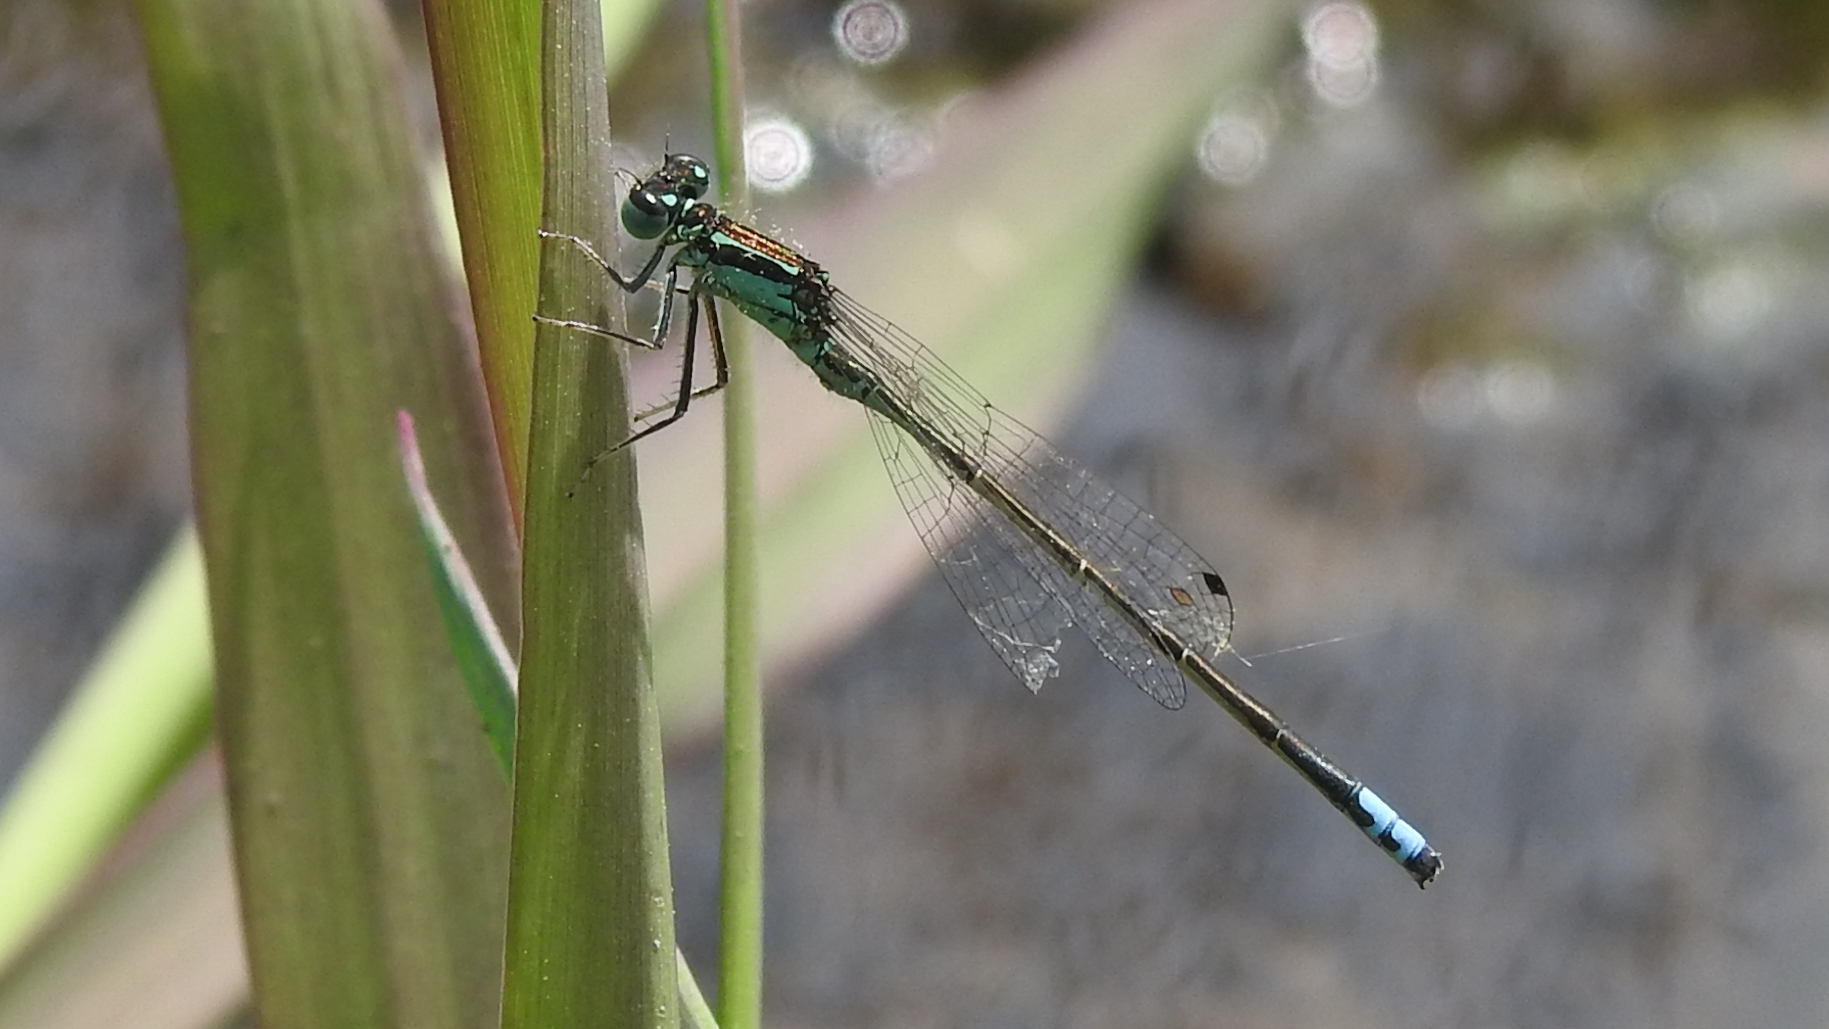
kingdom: Animalia
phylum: Arthropoda
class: Insecta
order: Odonata
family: Coenagrionidae
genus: Ischnura
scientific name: Ischnura verticalis
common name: Eastern forktail
